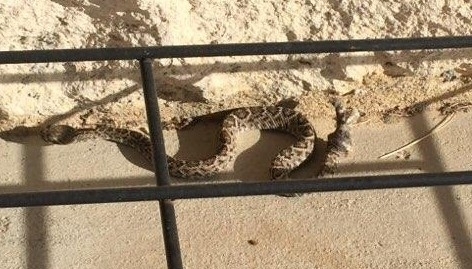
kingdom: Animalia
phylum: Chordata
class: Squamata
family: Viperidae
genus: Crotalus
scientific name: Crotalus atrox
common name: Western diamond-backed rattlesnake
